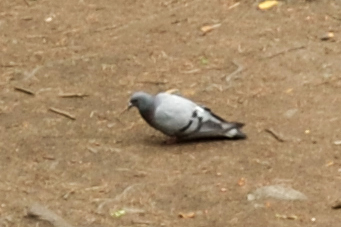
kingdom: Animalia
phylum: Chordata
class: Aves
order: Columbiformes
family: Columbidae
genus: Columba
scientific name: Columba rupestris
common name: Hill pigeon
